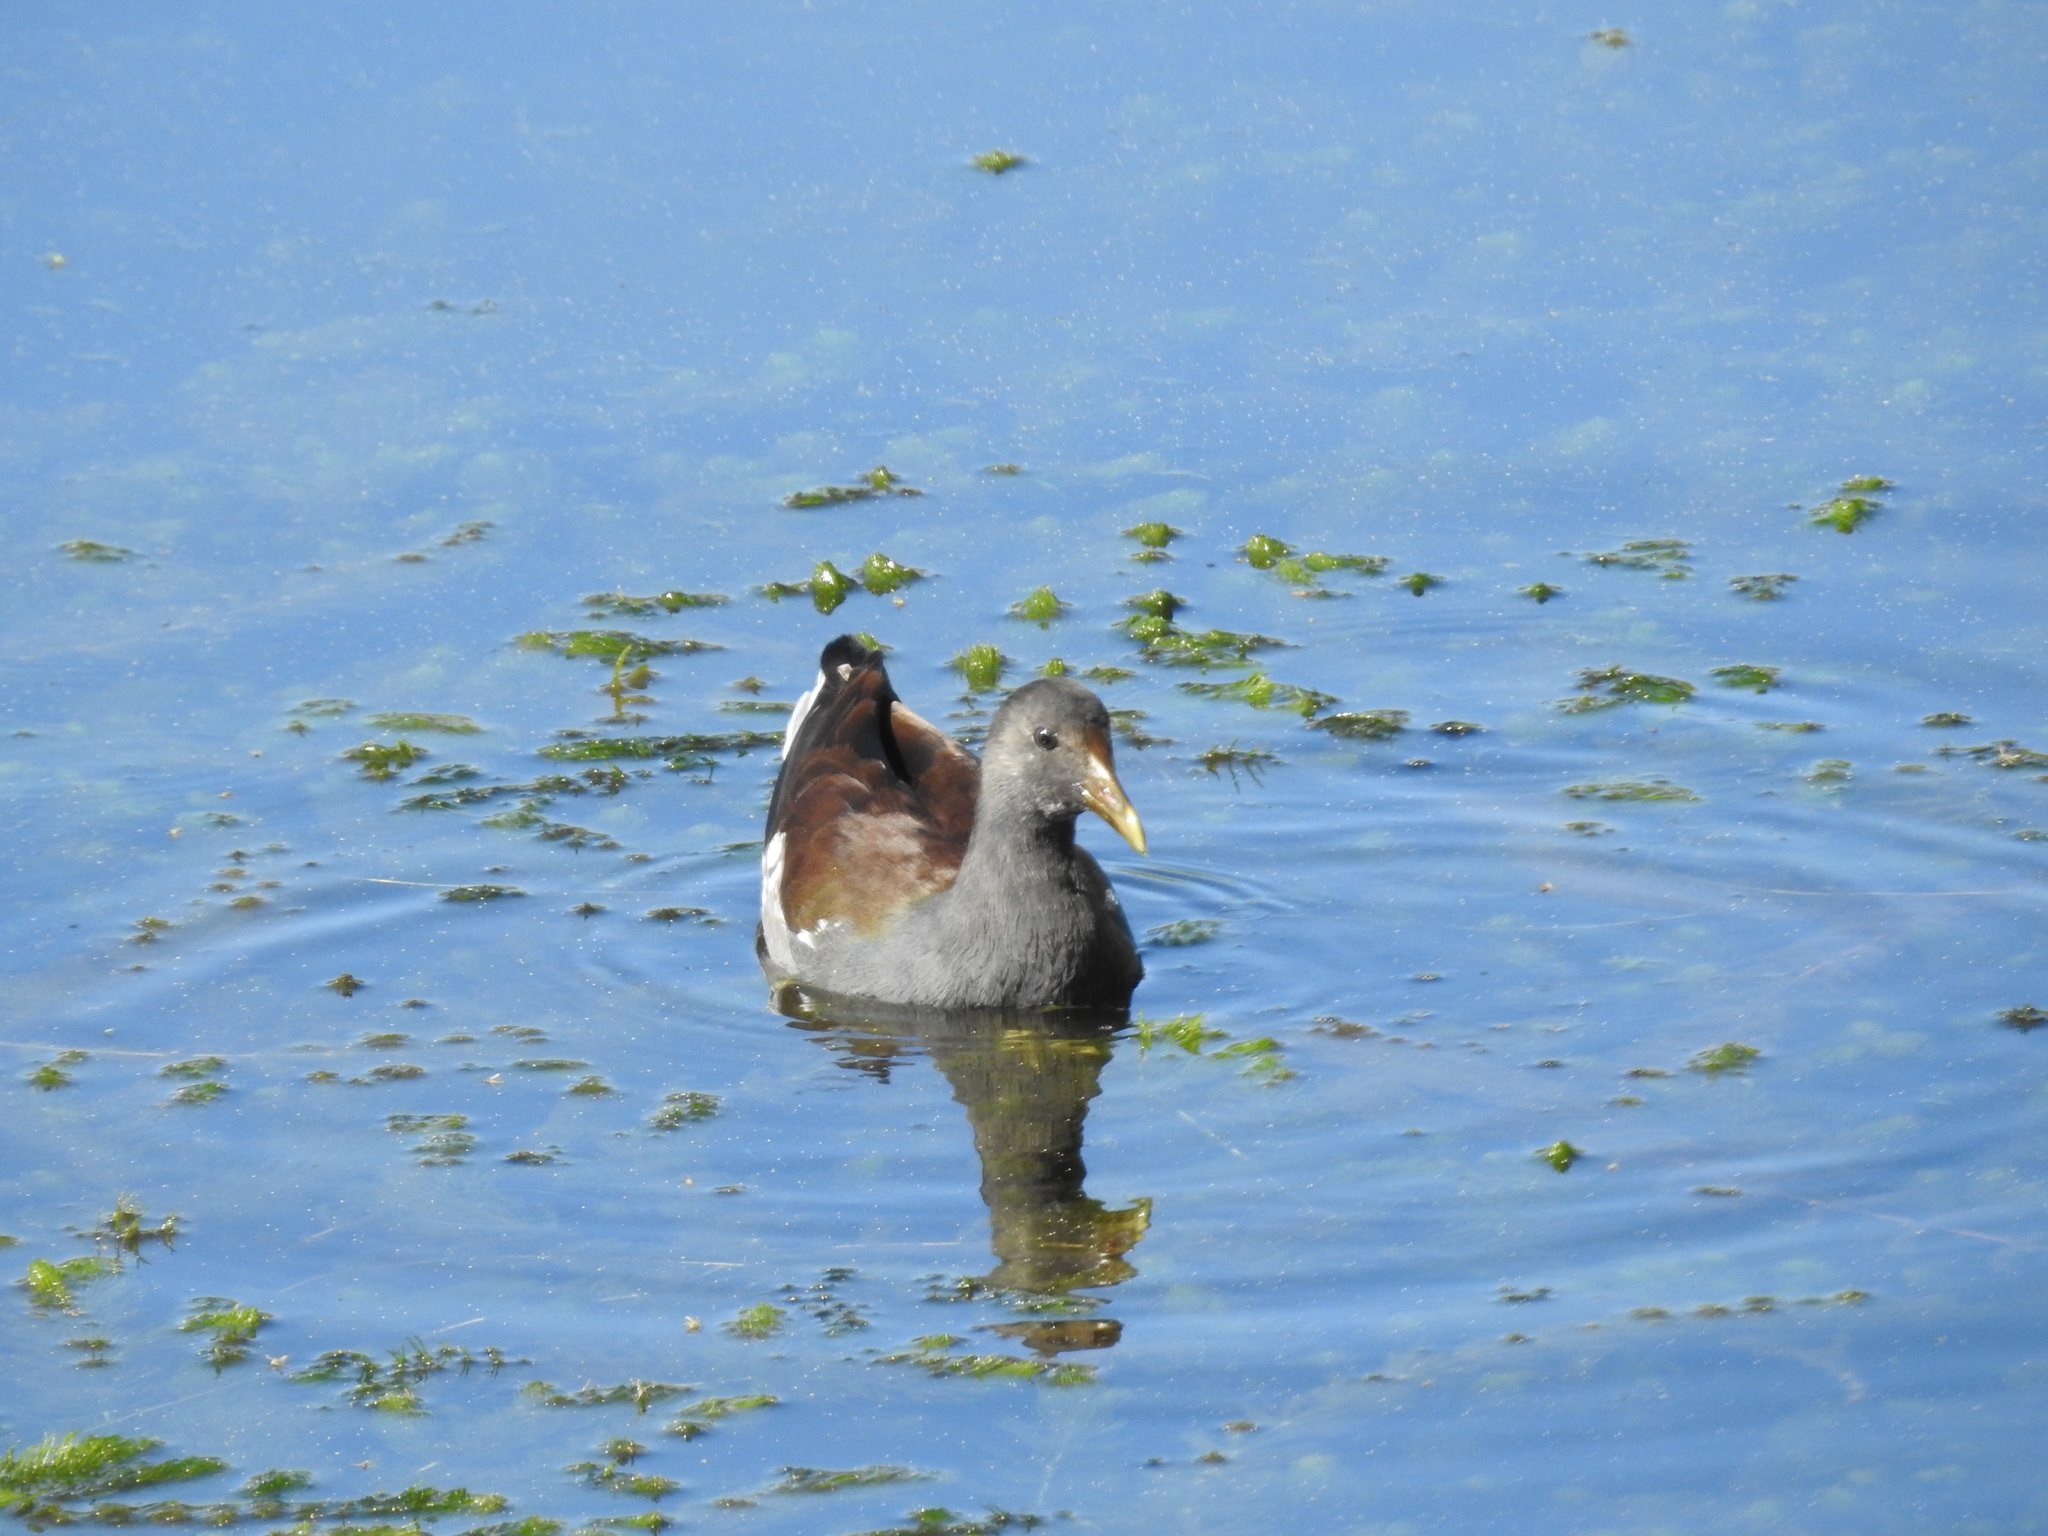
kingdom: Animalia
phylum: Chordata
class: Aves
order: Gruiformes
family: Rallidae
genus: Gallinula
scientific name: Gallinula chloropus
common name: Common moorhen
